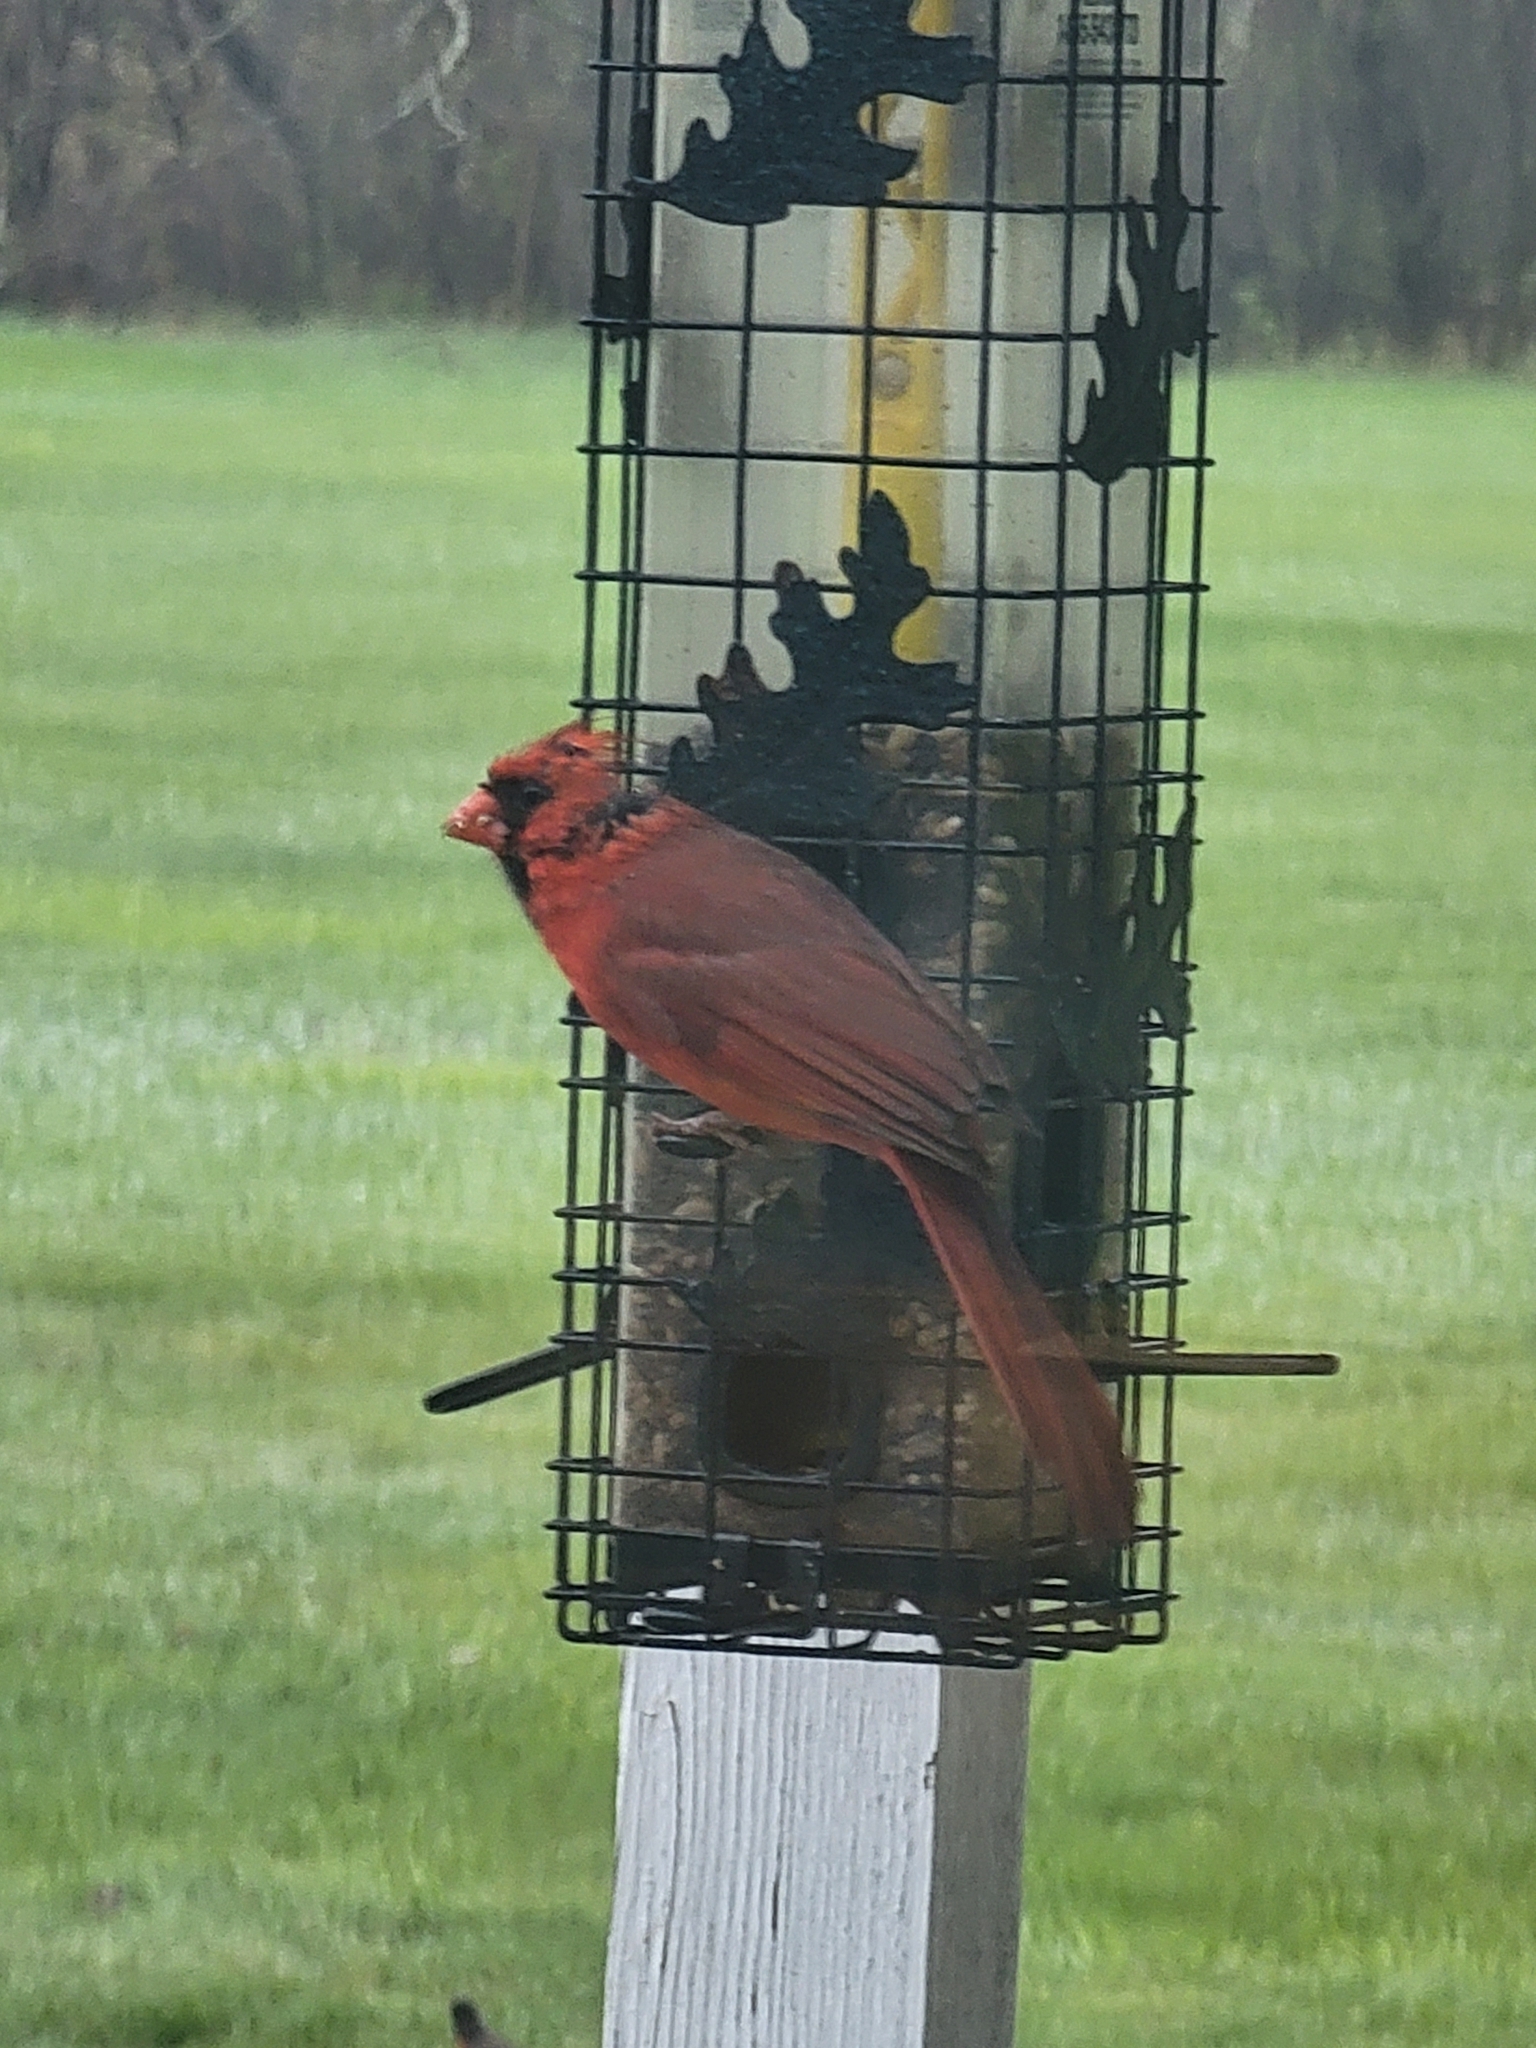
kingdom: Animalia
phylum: Chordata
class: Aves
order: Passeriformes
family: Cardinalidae
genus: Cardinalis
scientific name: Cardinalis cardinalis
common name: Northern cardinal
